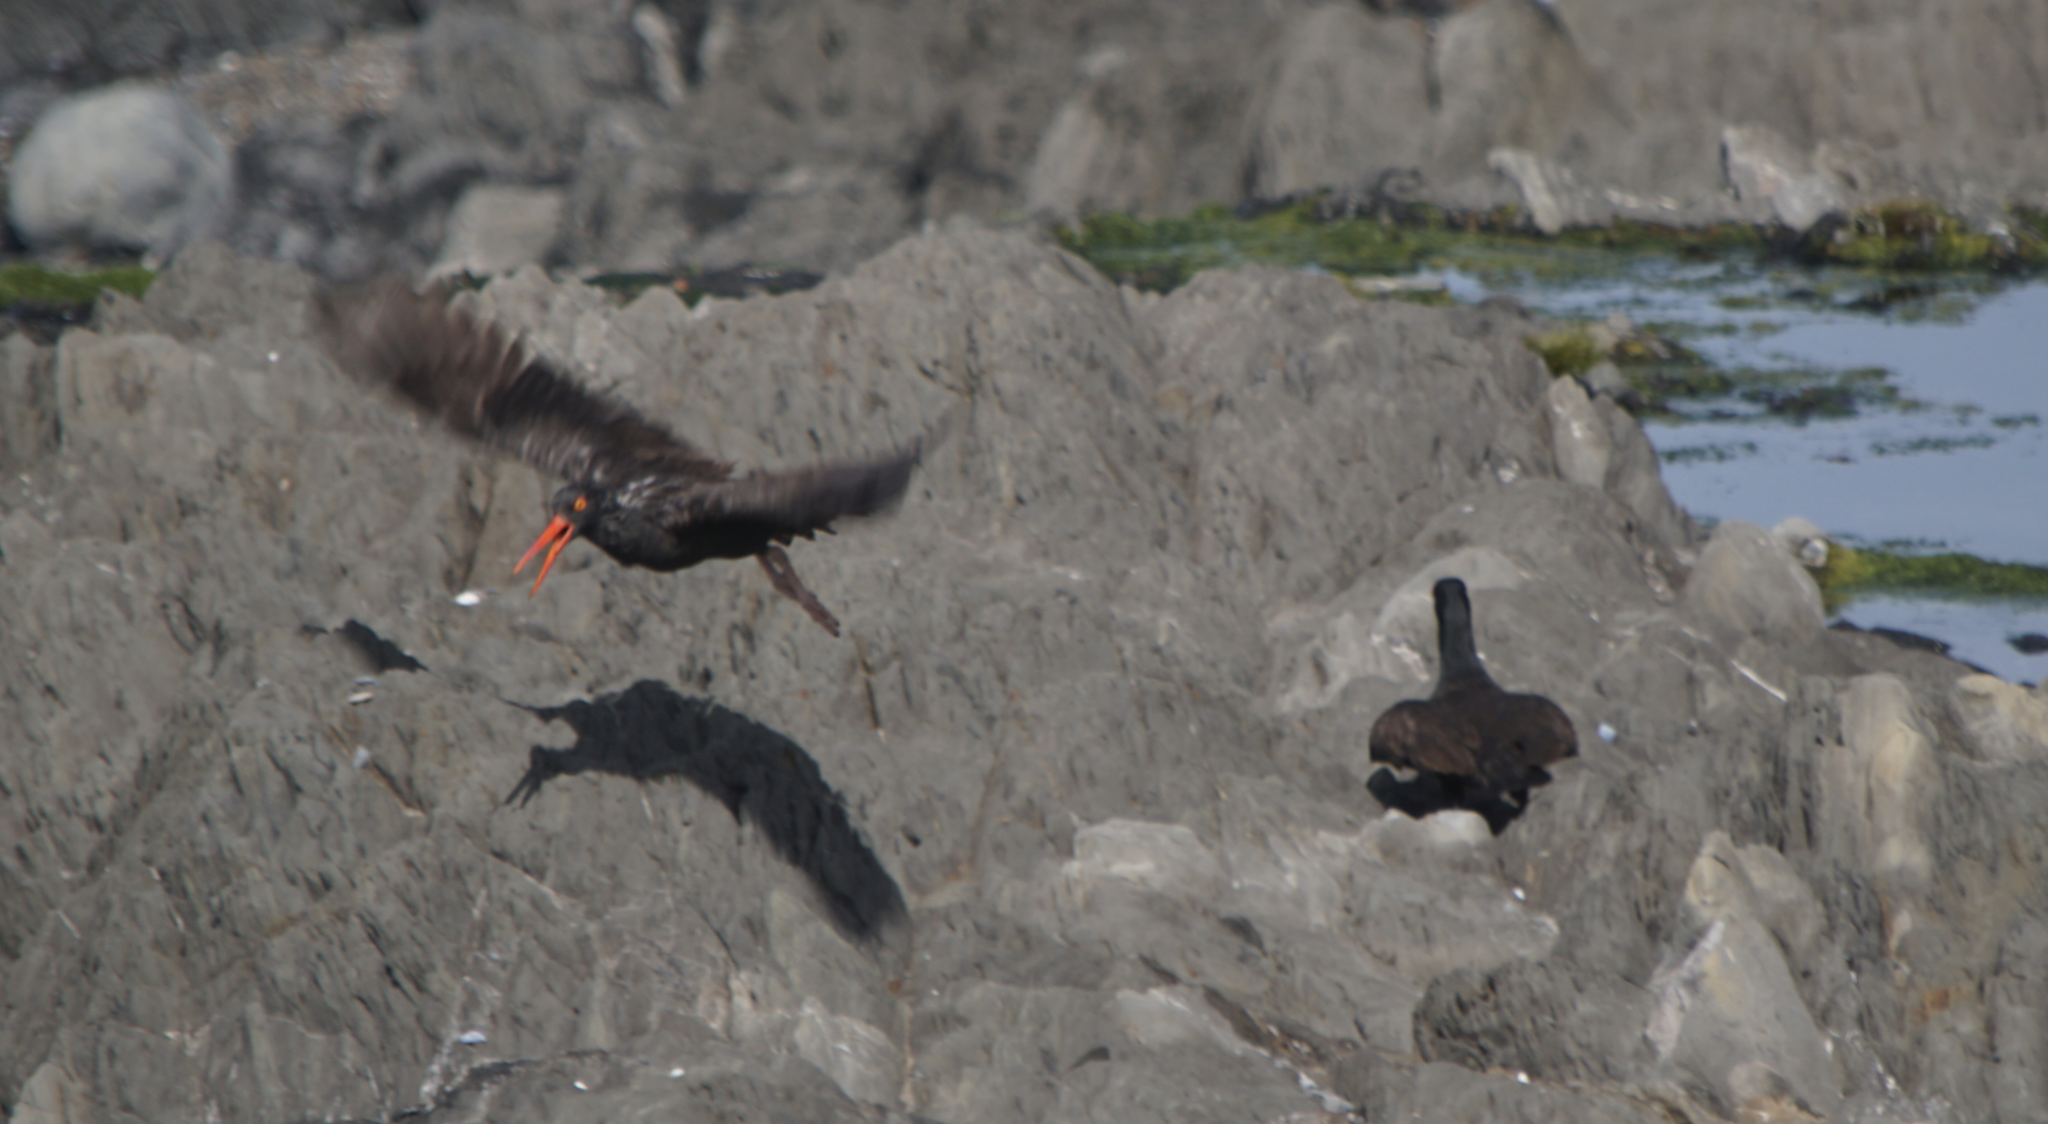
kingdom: Animalia
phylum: Chordata
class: Aves
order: Charadriiformes
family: Haematopodidae
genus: Haematopus
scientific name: Haematopus bachmani
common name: Black oystercatcher
